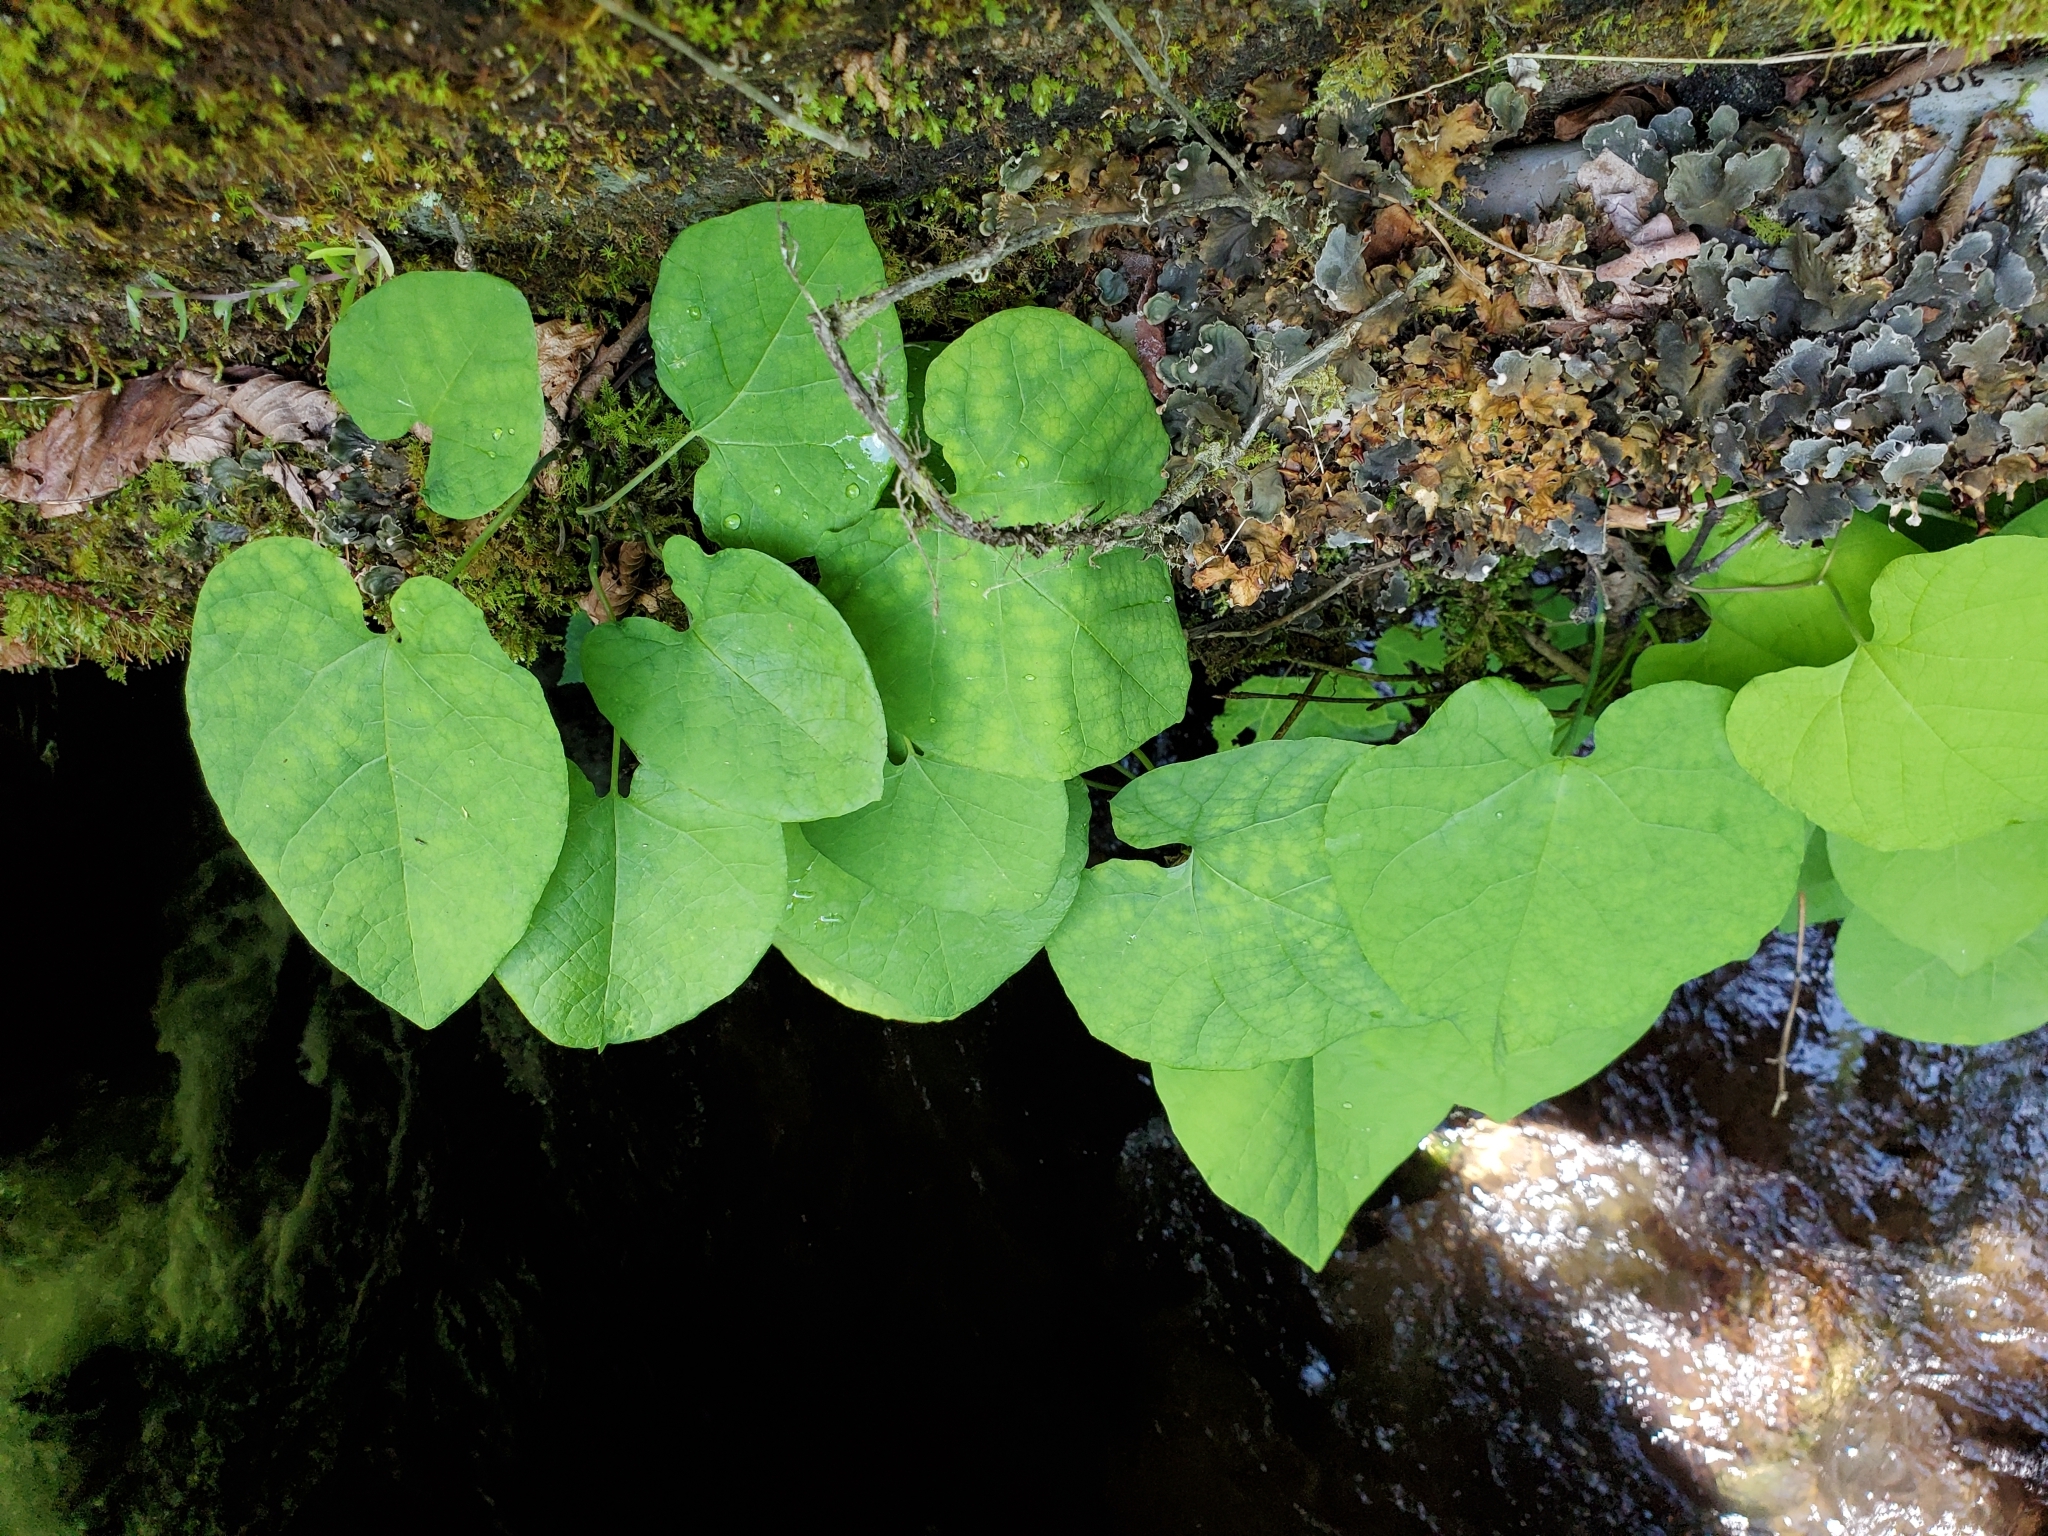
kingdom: Plantae
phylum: Tracheophyta
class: Magnoliopsida
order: Piperales
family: Aristolochiaceae
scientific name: Aristolochiaceae
